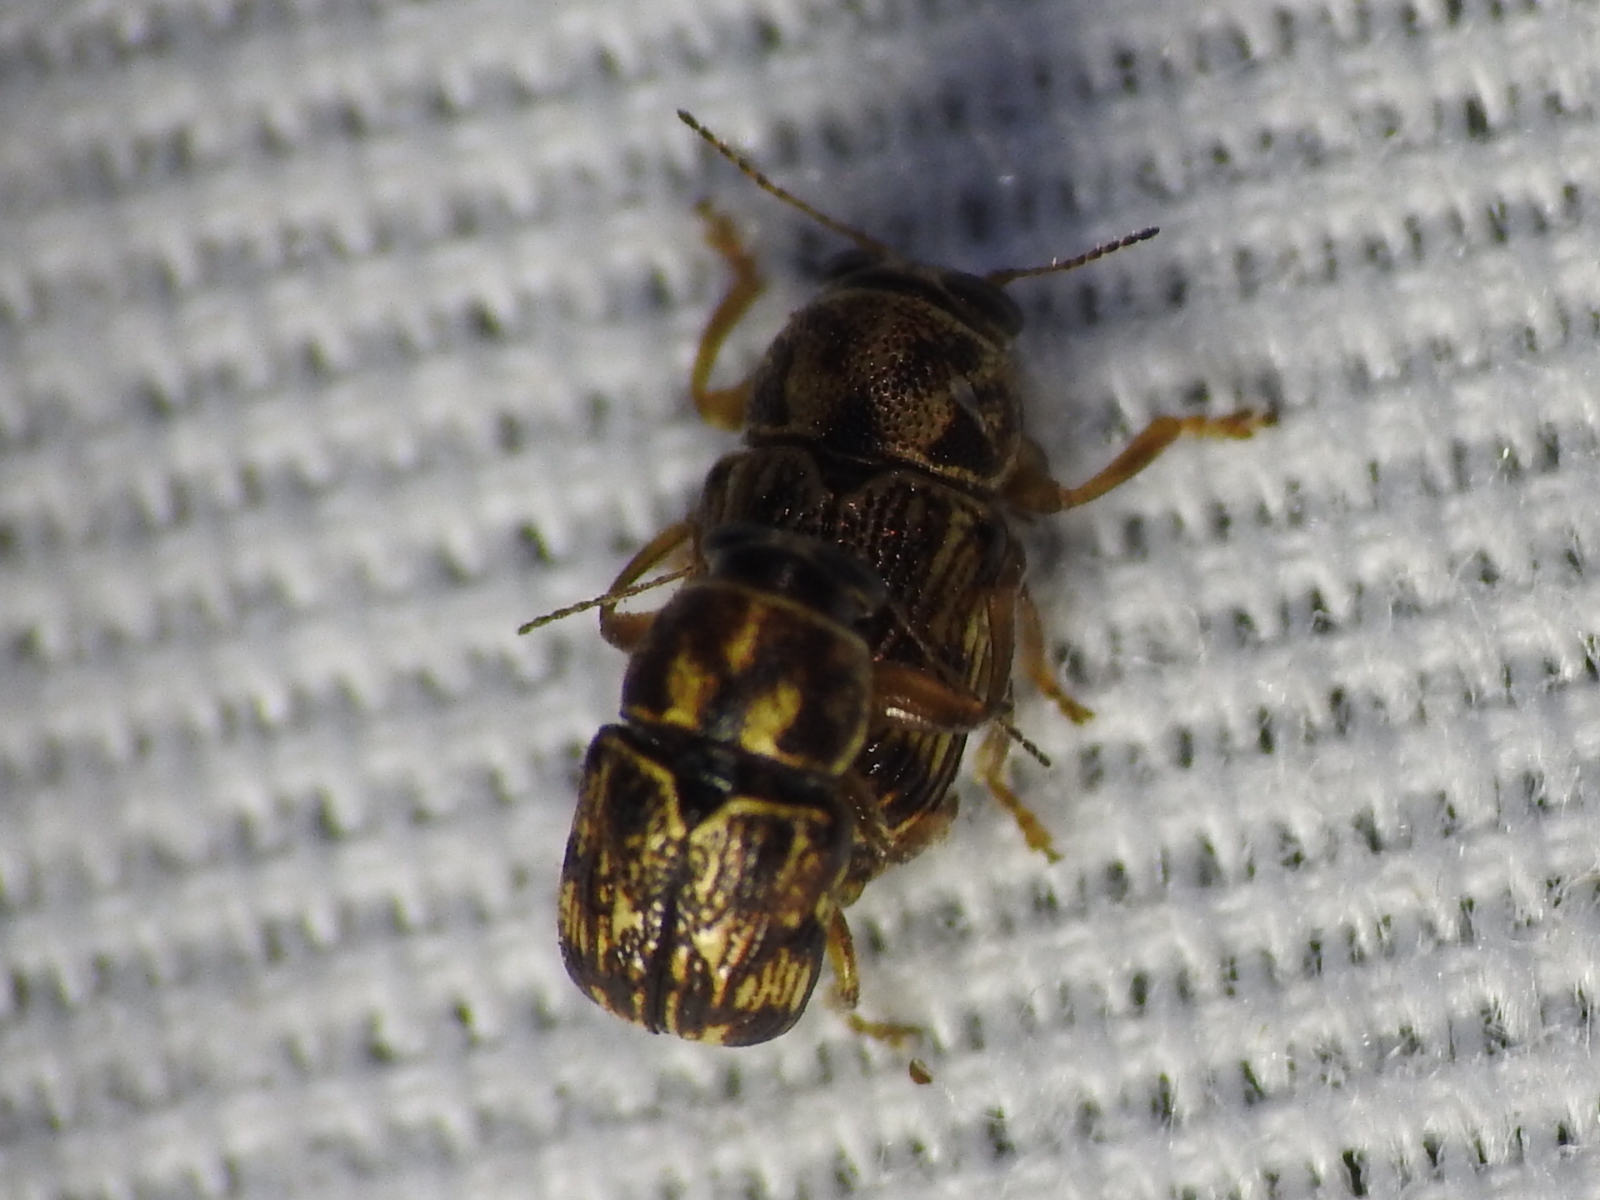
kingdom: Animalia
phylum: Arthropoda
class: Insecta
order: Coleoptera
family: Chrysomelidae
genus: Pachybrachis
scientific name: Pachybrachis brevicornis
